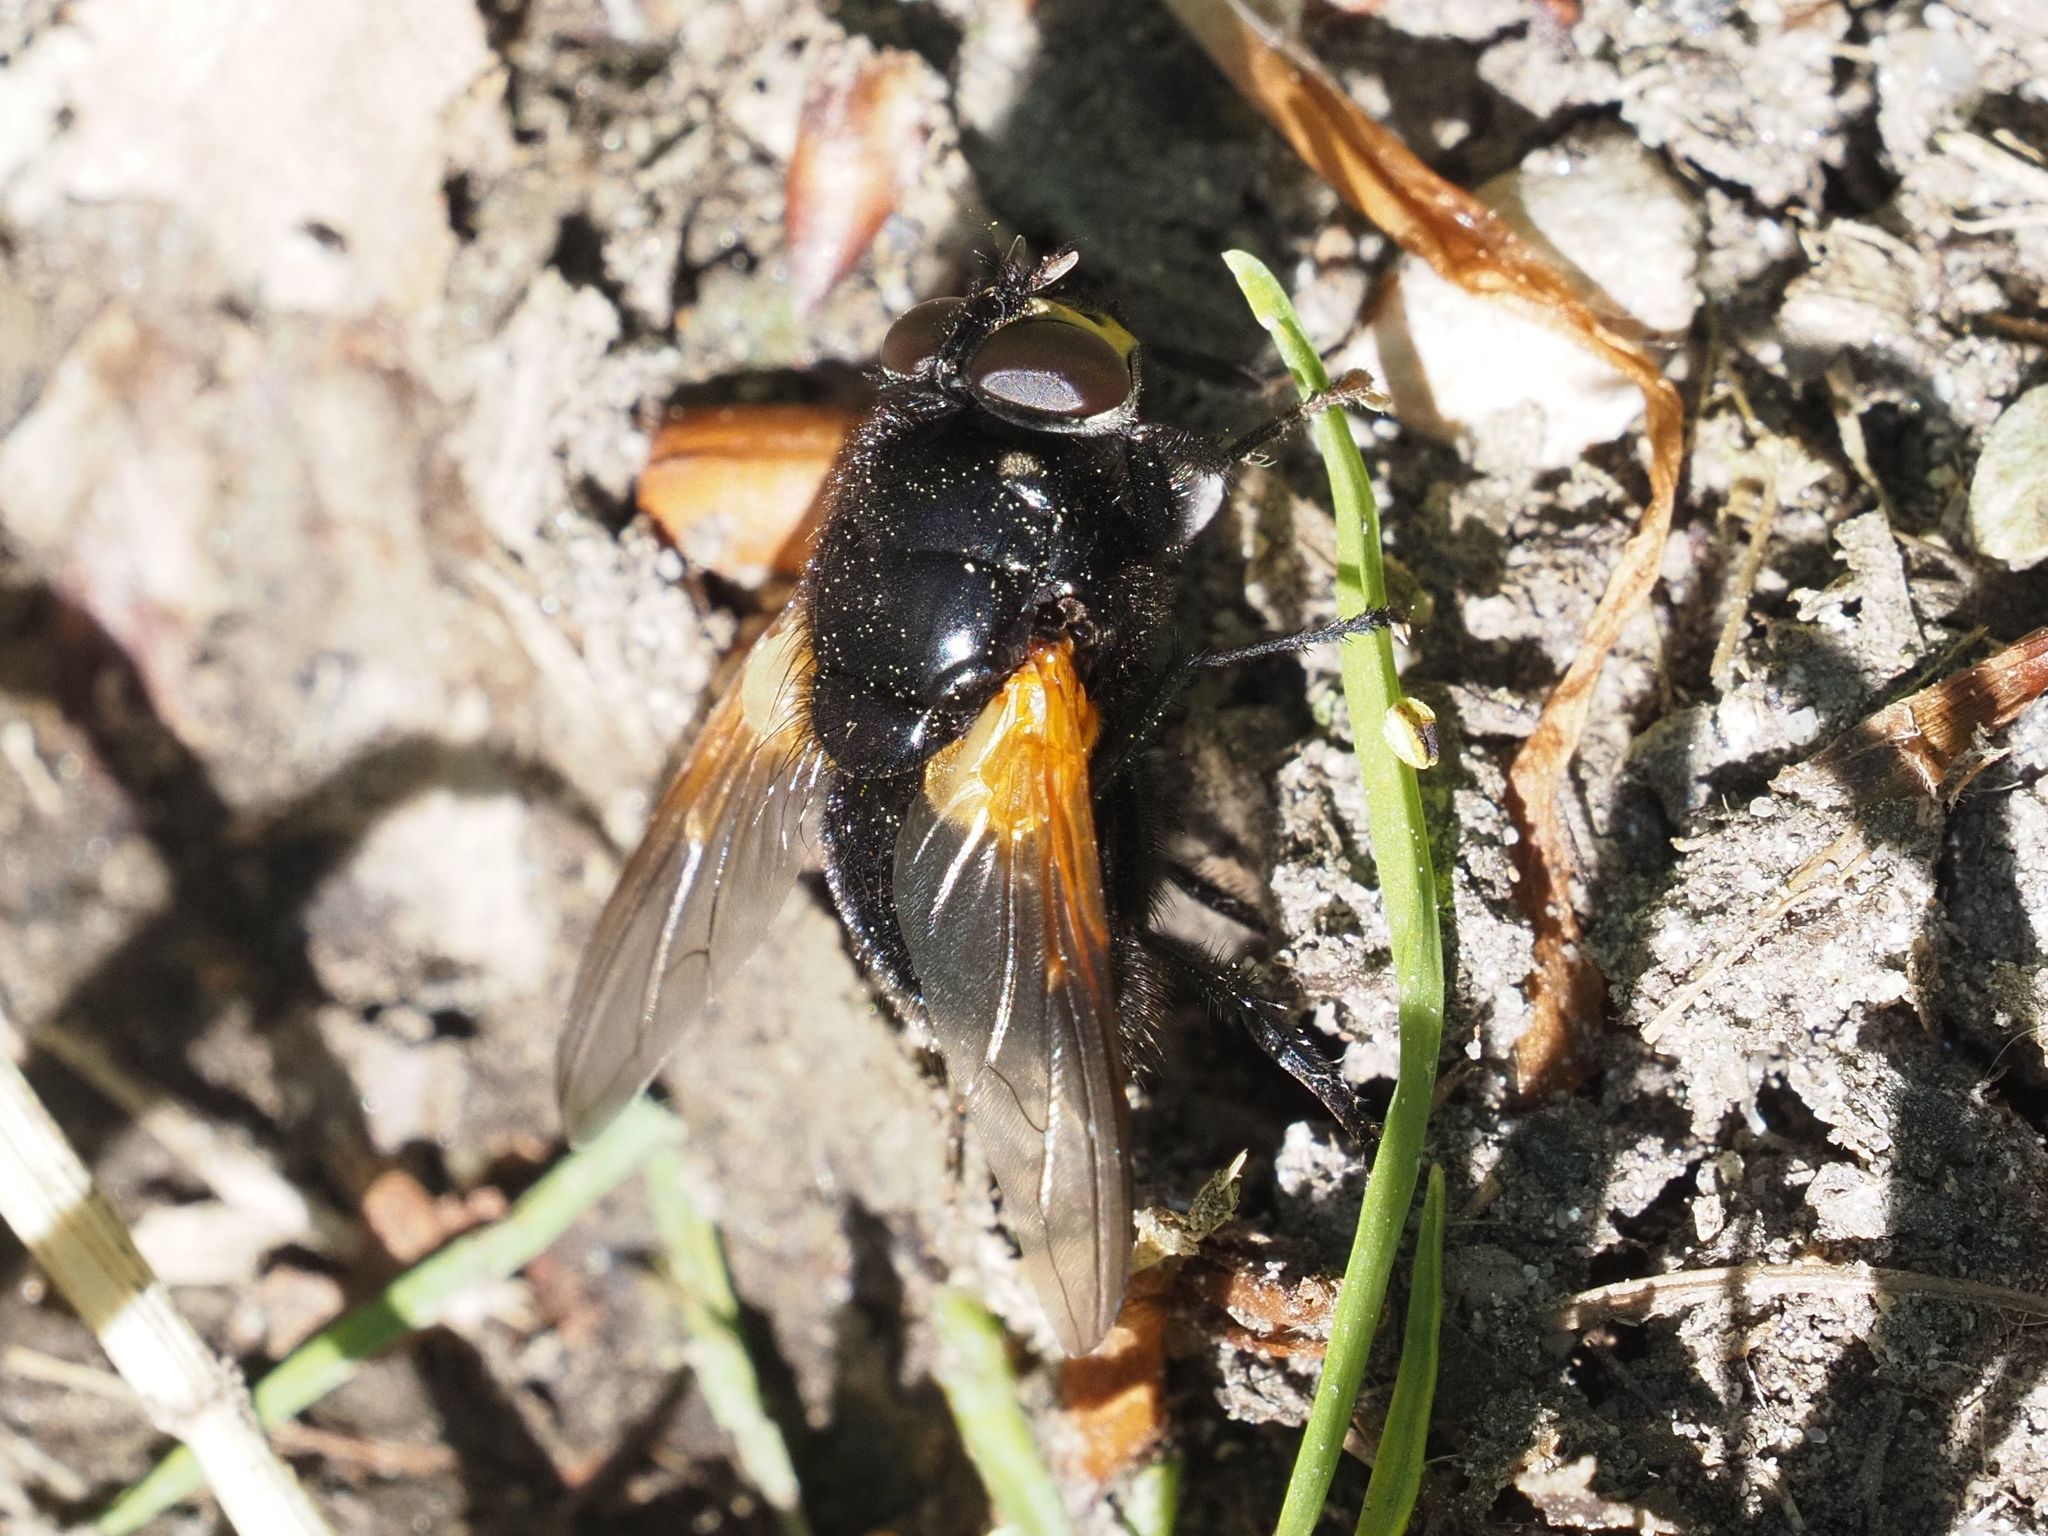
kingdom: Animalia
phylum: Arthropoda
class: Insecta
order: Diptera
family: Muscidae
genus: Mesembrina
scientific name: Mesembrina meridiana
